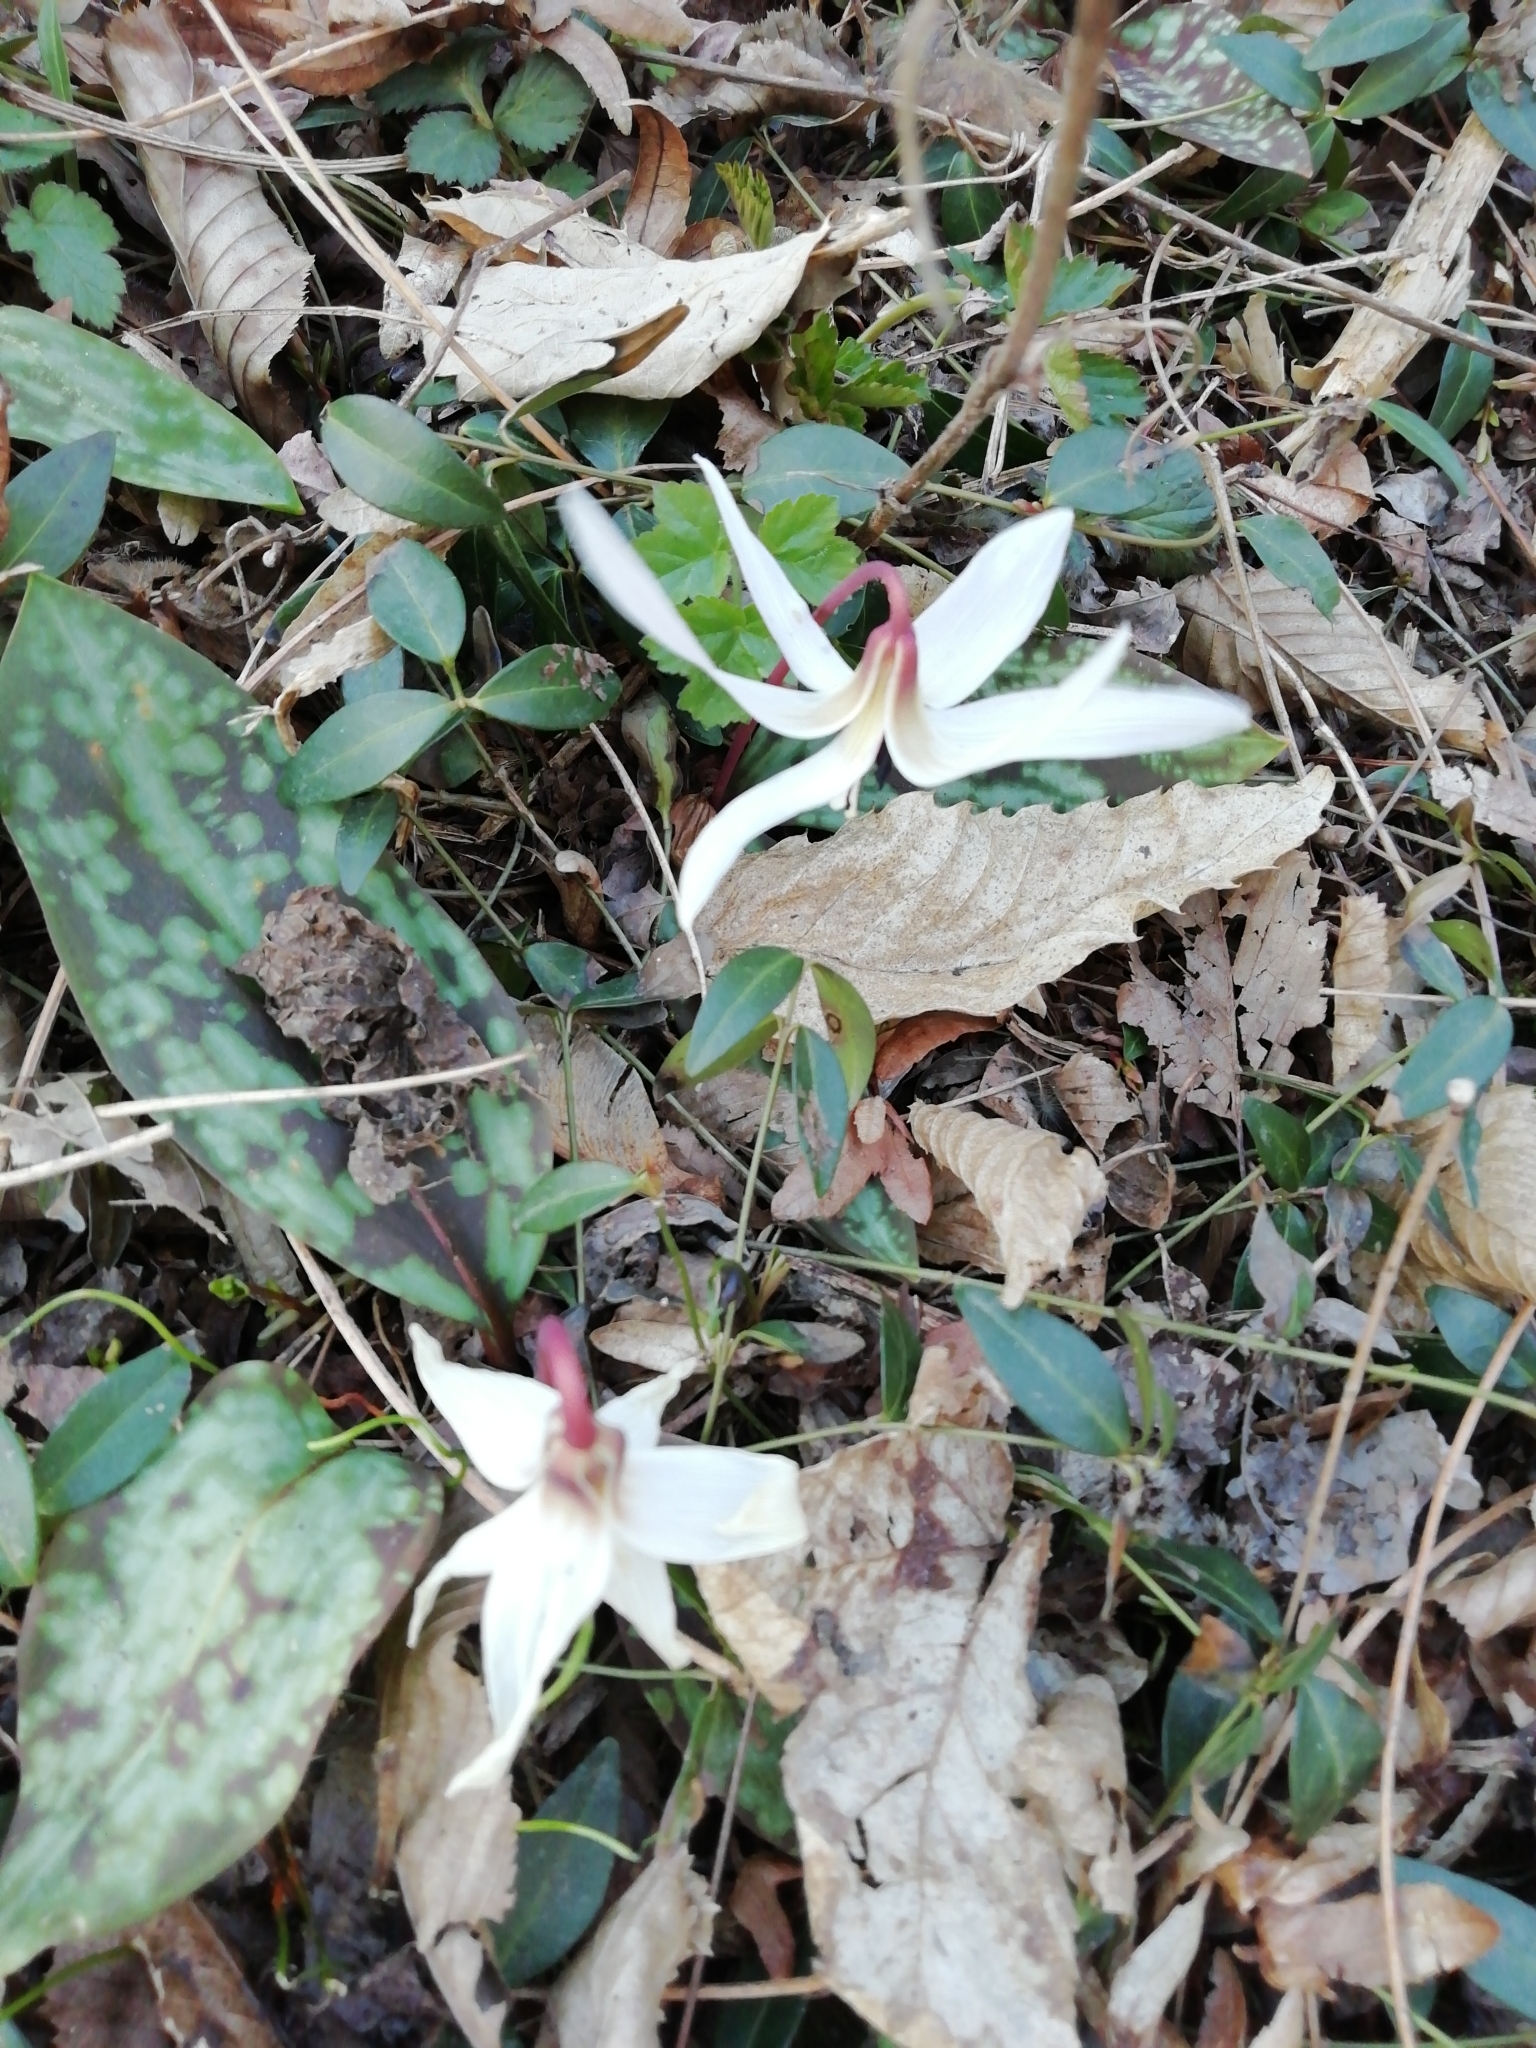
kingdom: Plantae
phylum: Tracheophyta
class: Liliopsida
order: Liliales
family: Liliaceae
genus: Erythronium
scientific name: Erythronium dens-canis
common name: Dog's-tooth-violet
